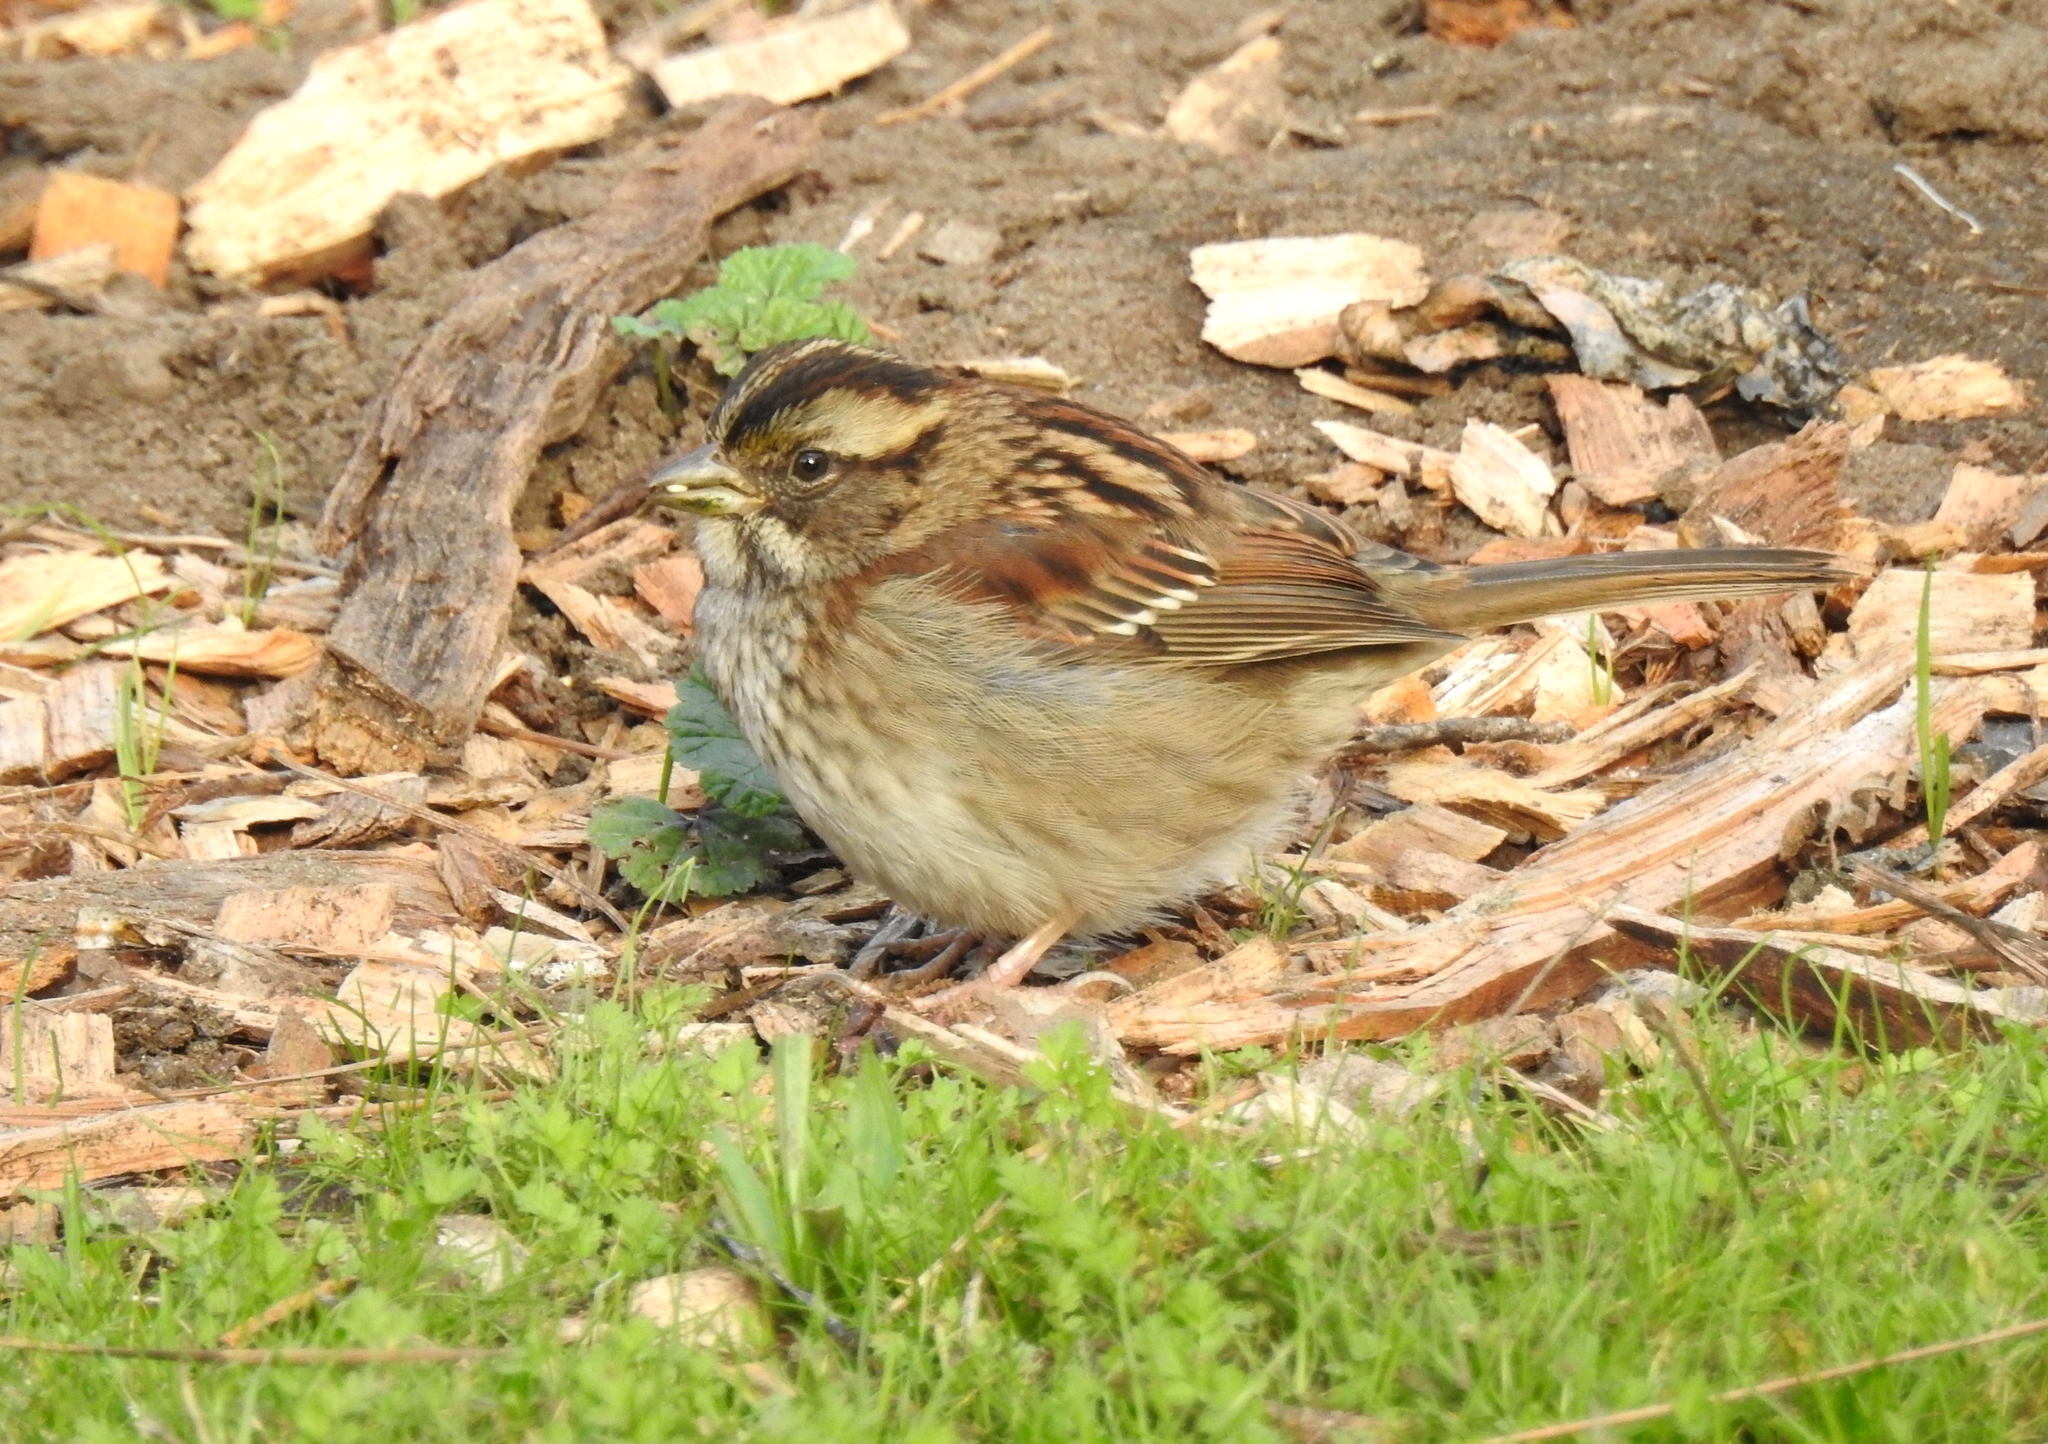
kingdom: Animalia
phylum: Chordata
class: Aves
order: Passeriformes
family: Passerellidae
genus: Zonotrichia
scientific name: Zonotrichia albicollis
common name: White-throated sparrow
